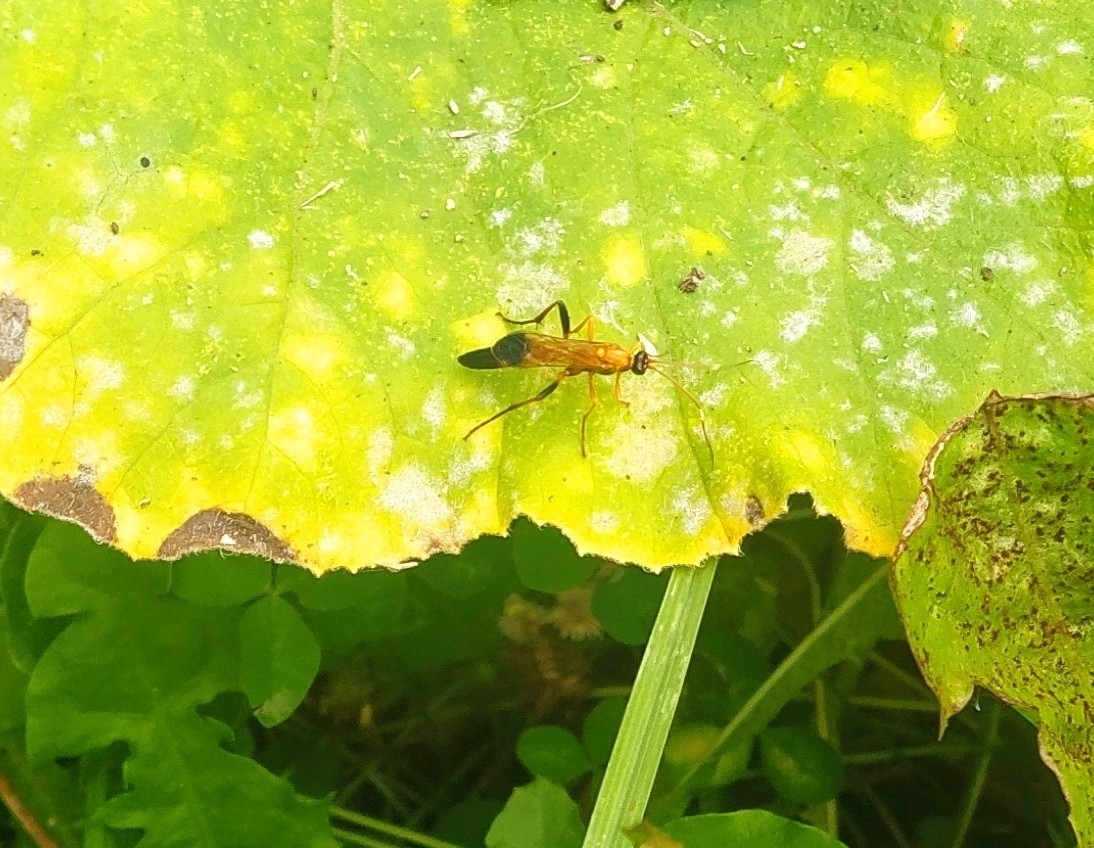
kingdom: Animalia
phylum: Arthropoda
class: Insecta
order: Hymenoptera
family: Ichneumonidae
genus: Ctenochares
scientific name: Ctenochares bicolorus
